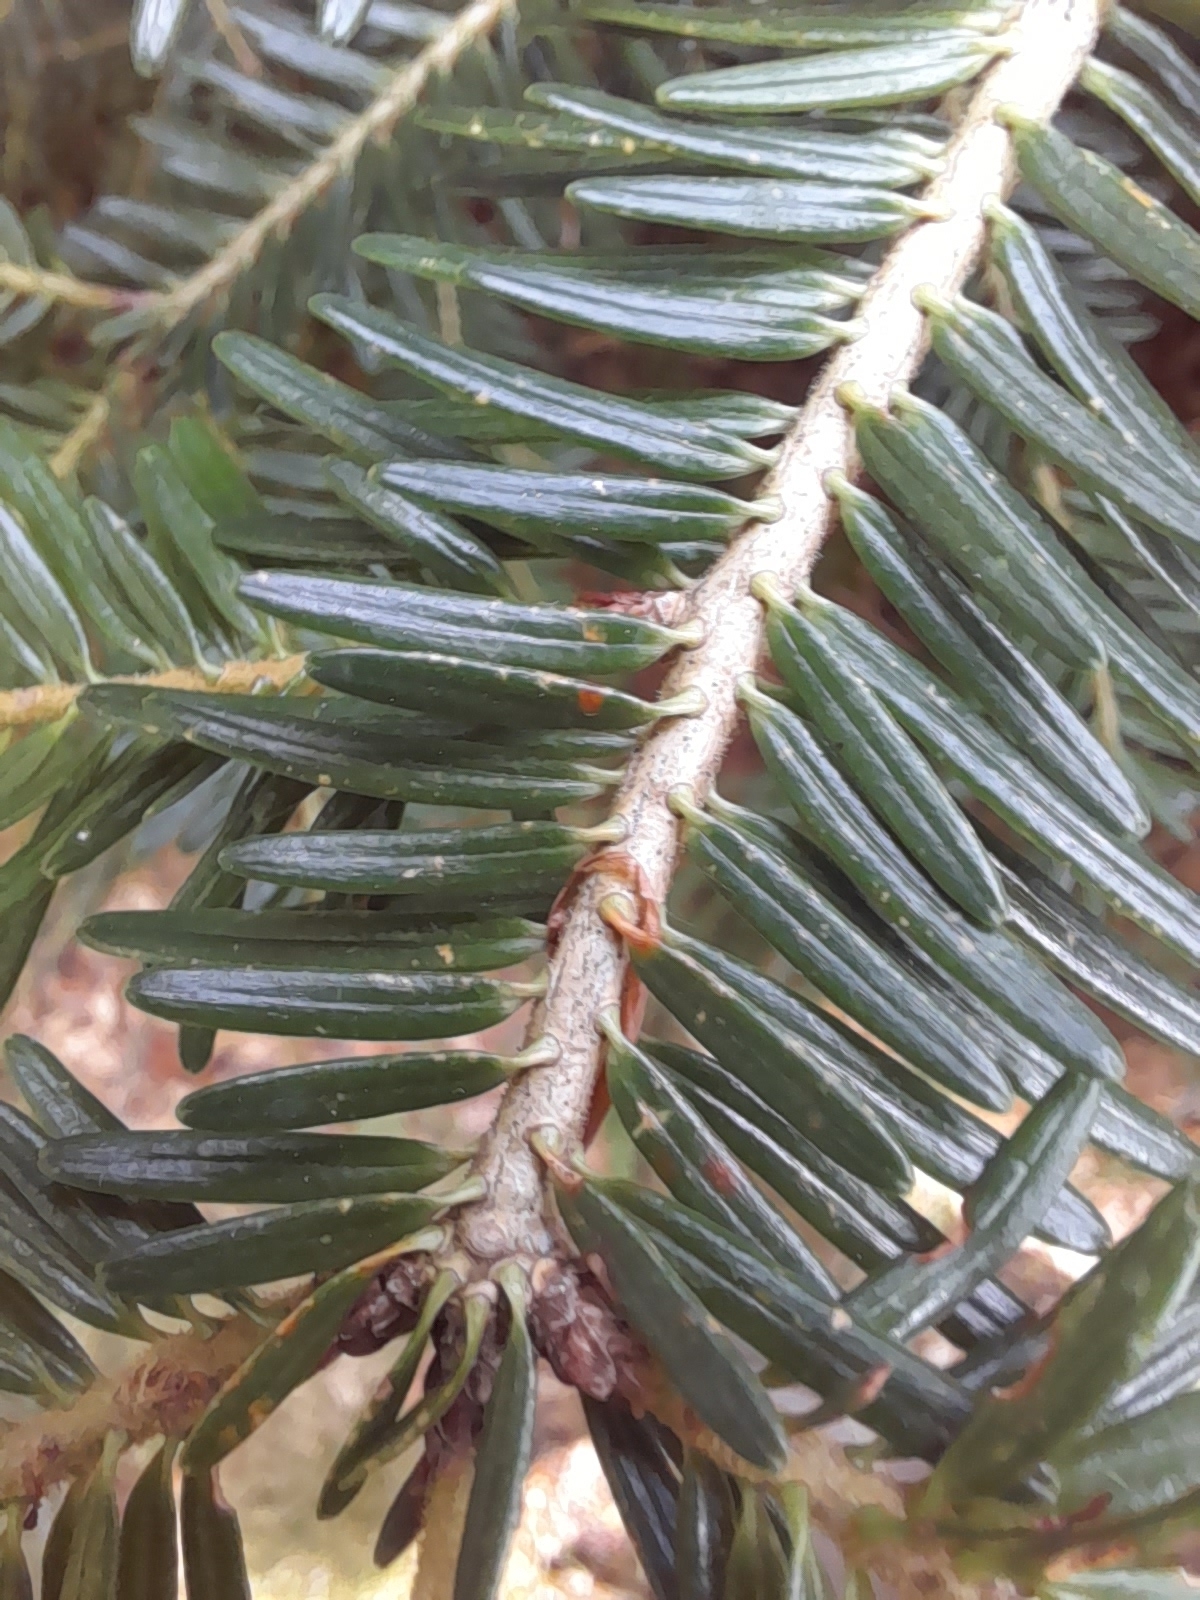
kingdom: Plantae
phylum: Tracheophyta
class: Pinopsida
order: Pinales
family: Pinaceae
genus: Abies
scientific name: Abies alba
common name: Silver fir
